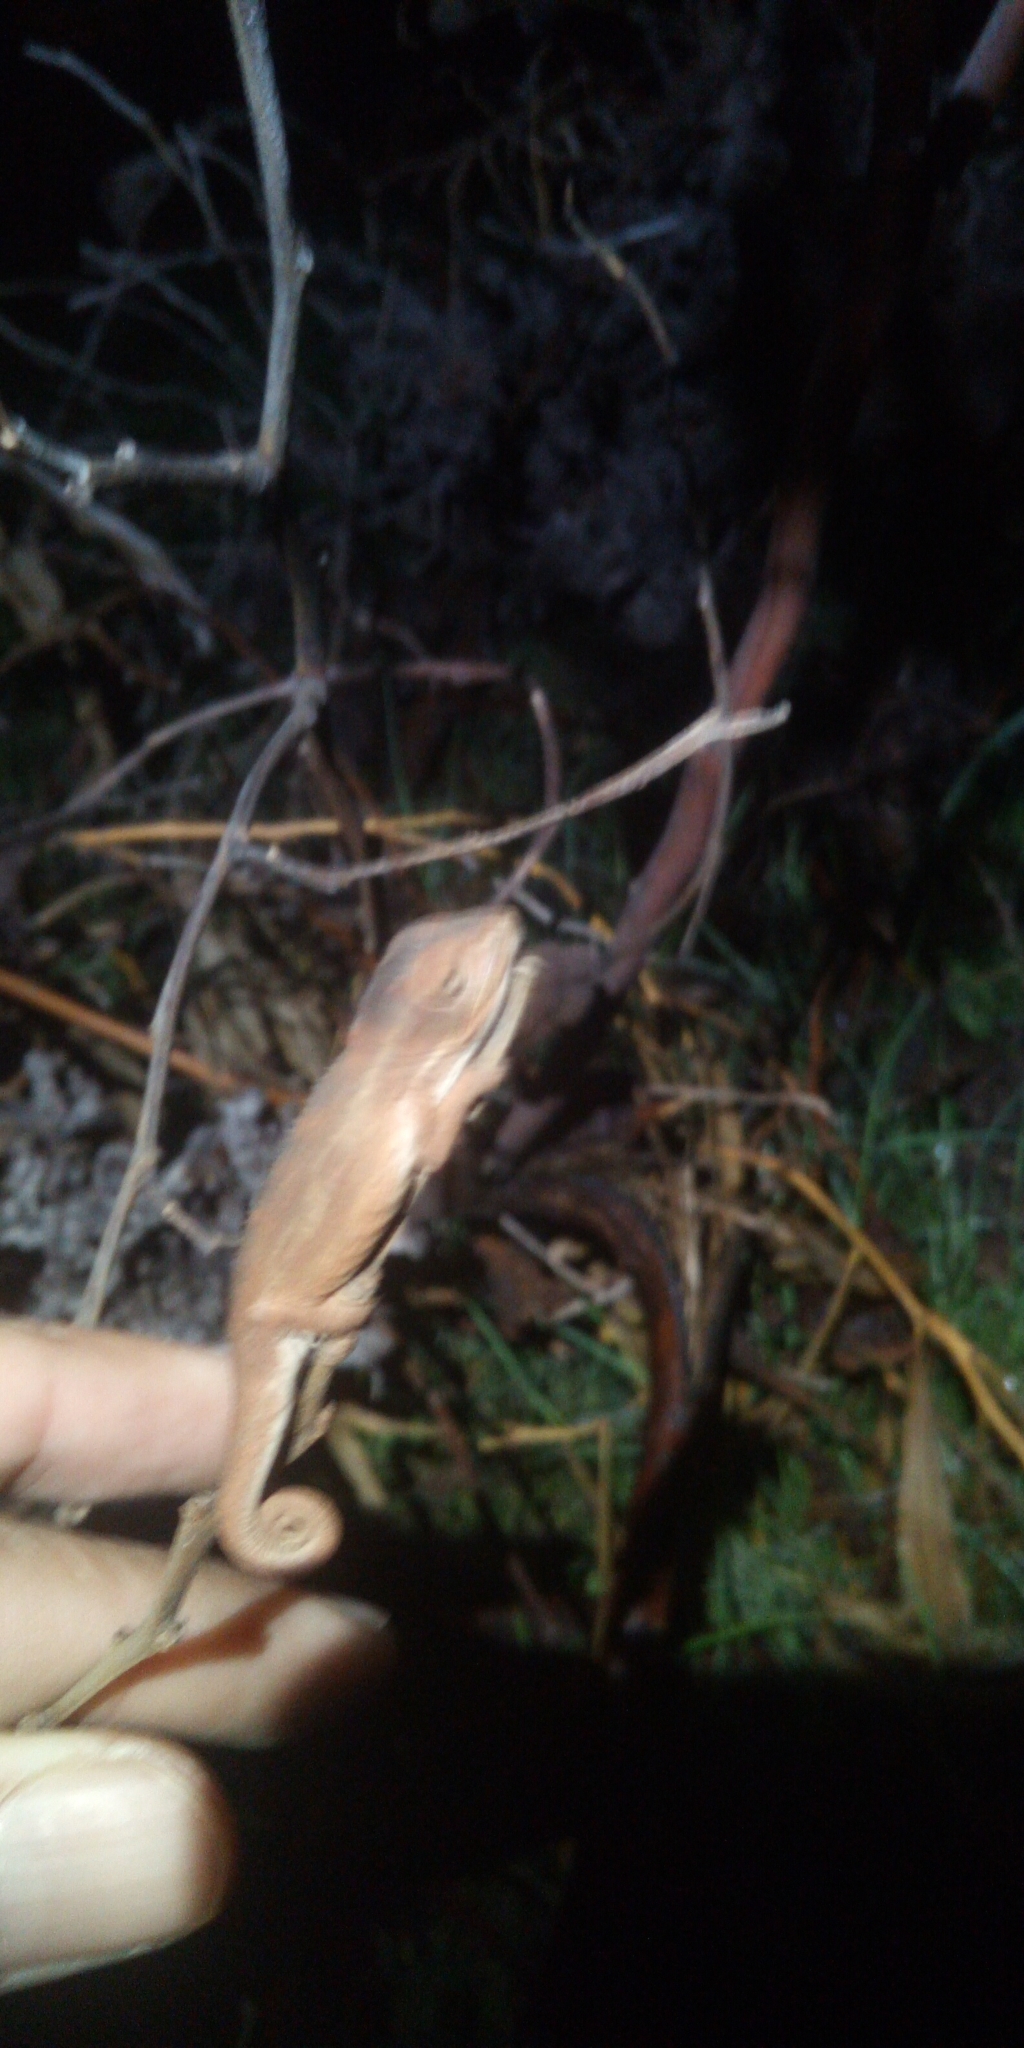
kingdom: Animalia
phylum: Chordata
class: Squamata
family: Chamaeleonidae
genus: Bradypodion
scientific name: Bradypodion pumilum
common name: Cape dwarf chameleon
